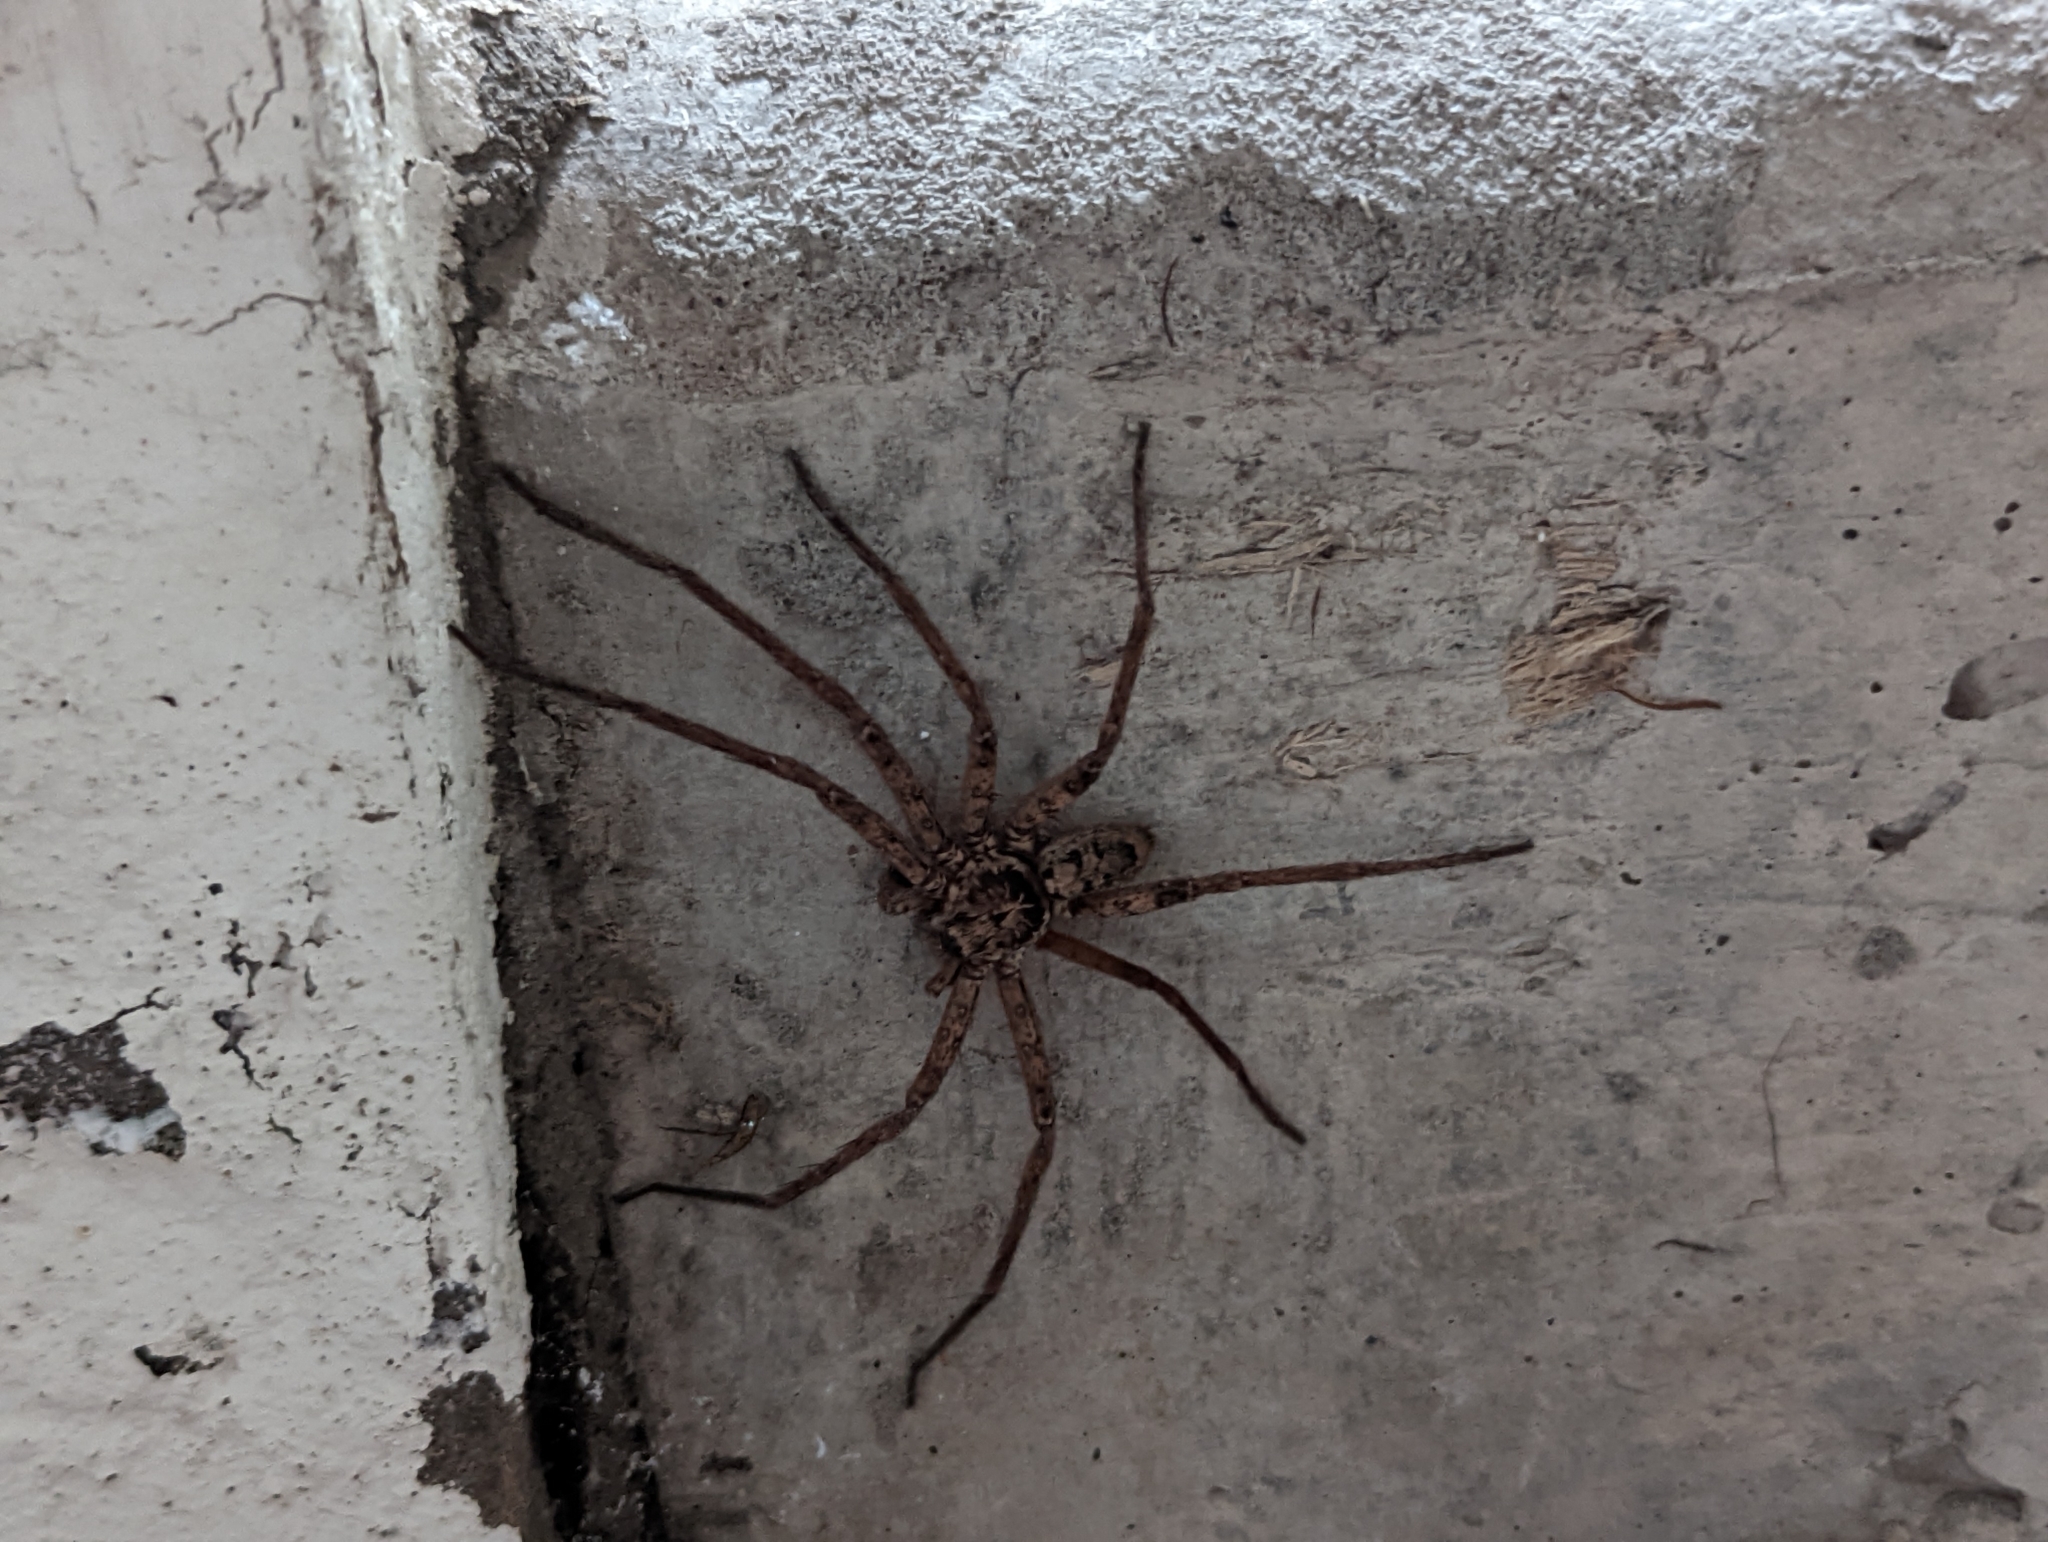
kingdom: Animalia
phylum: Arthropoda
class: Arachnida
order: Araneae
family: Sparassidae
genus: Heteropoda
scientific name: Heteropoda jugulans
